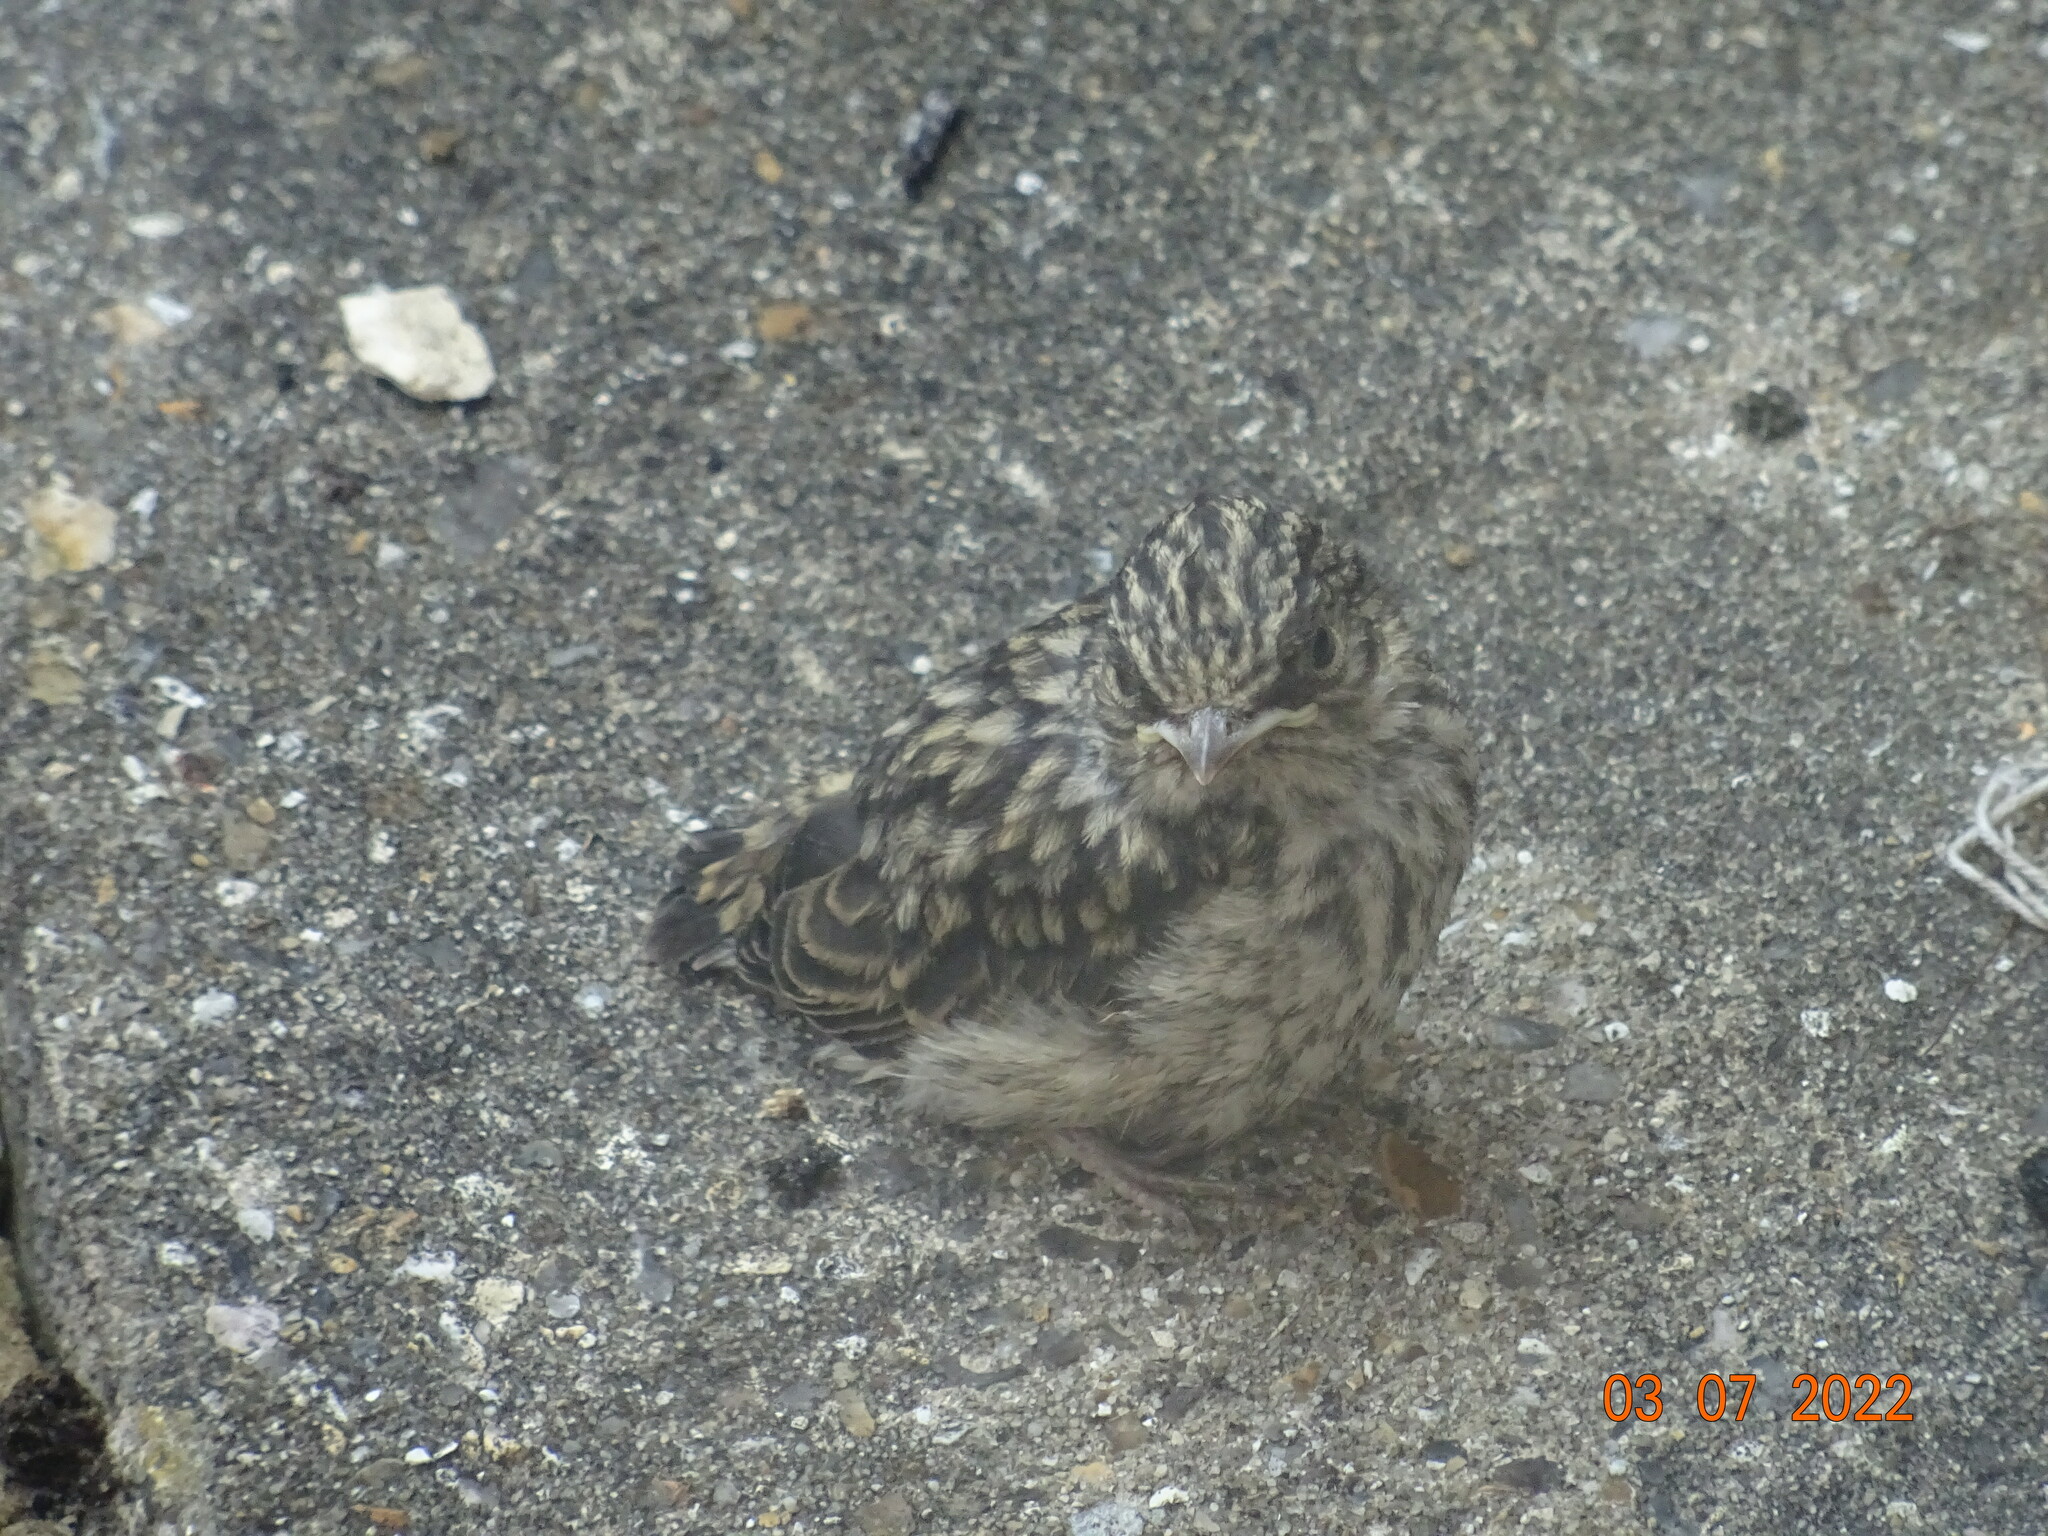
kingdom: Animalia
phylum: Chordata
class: Aves
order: Passeriformes
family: Muscicapidae
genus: Muscicapa
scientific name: Muscicapa striata
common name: Spotted flycatcher
